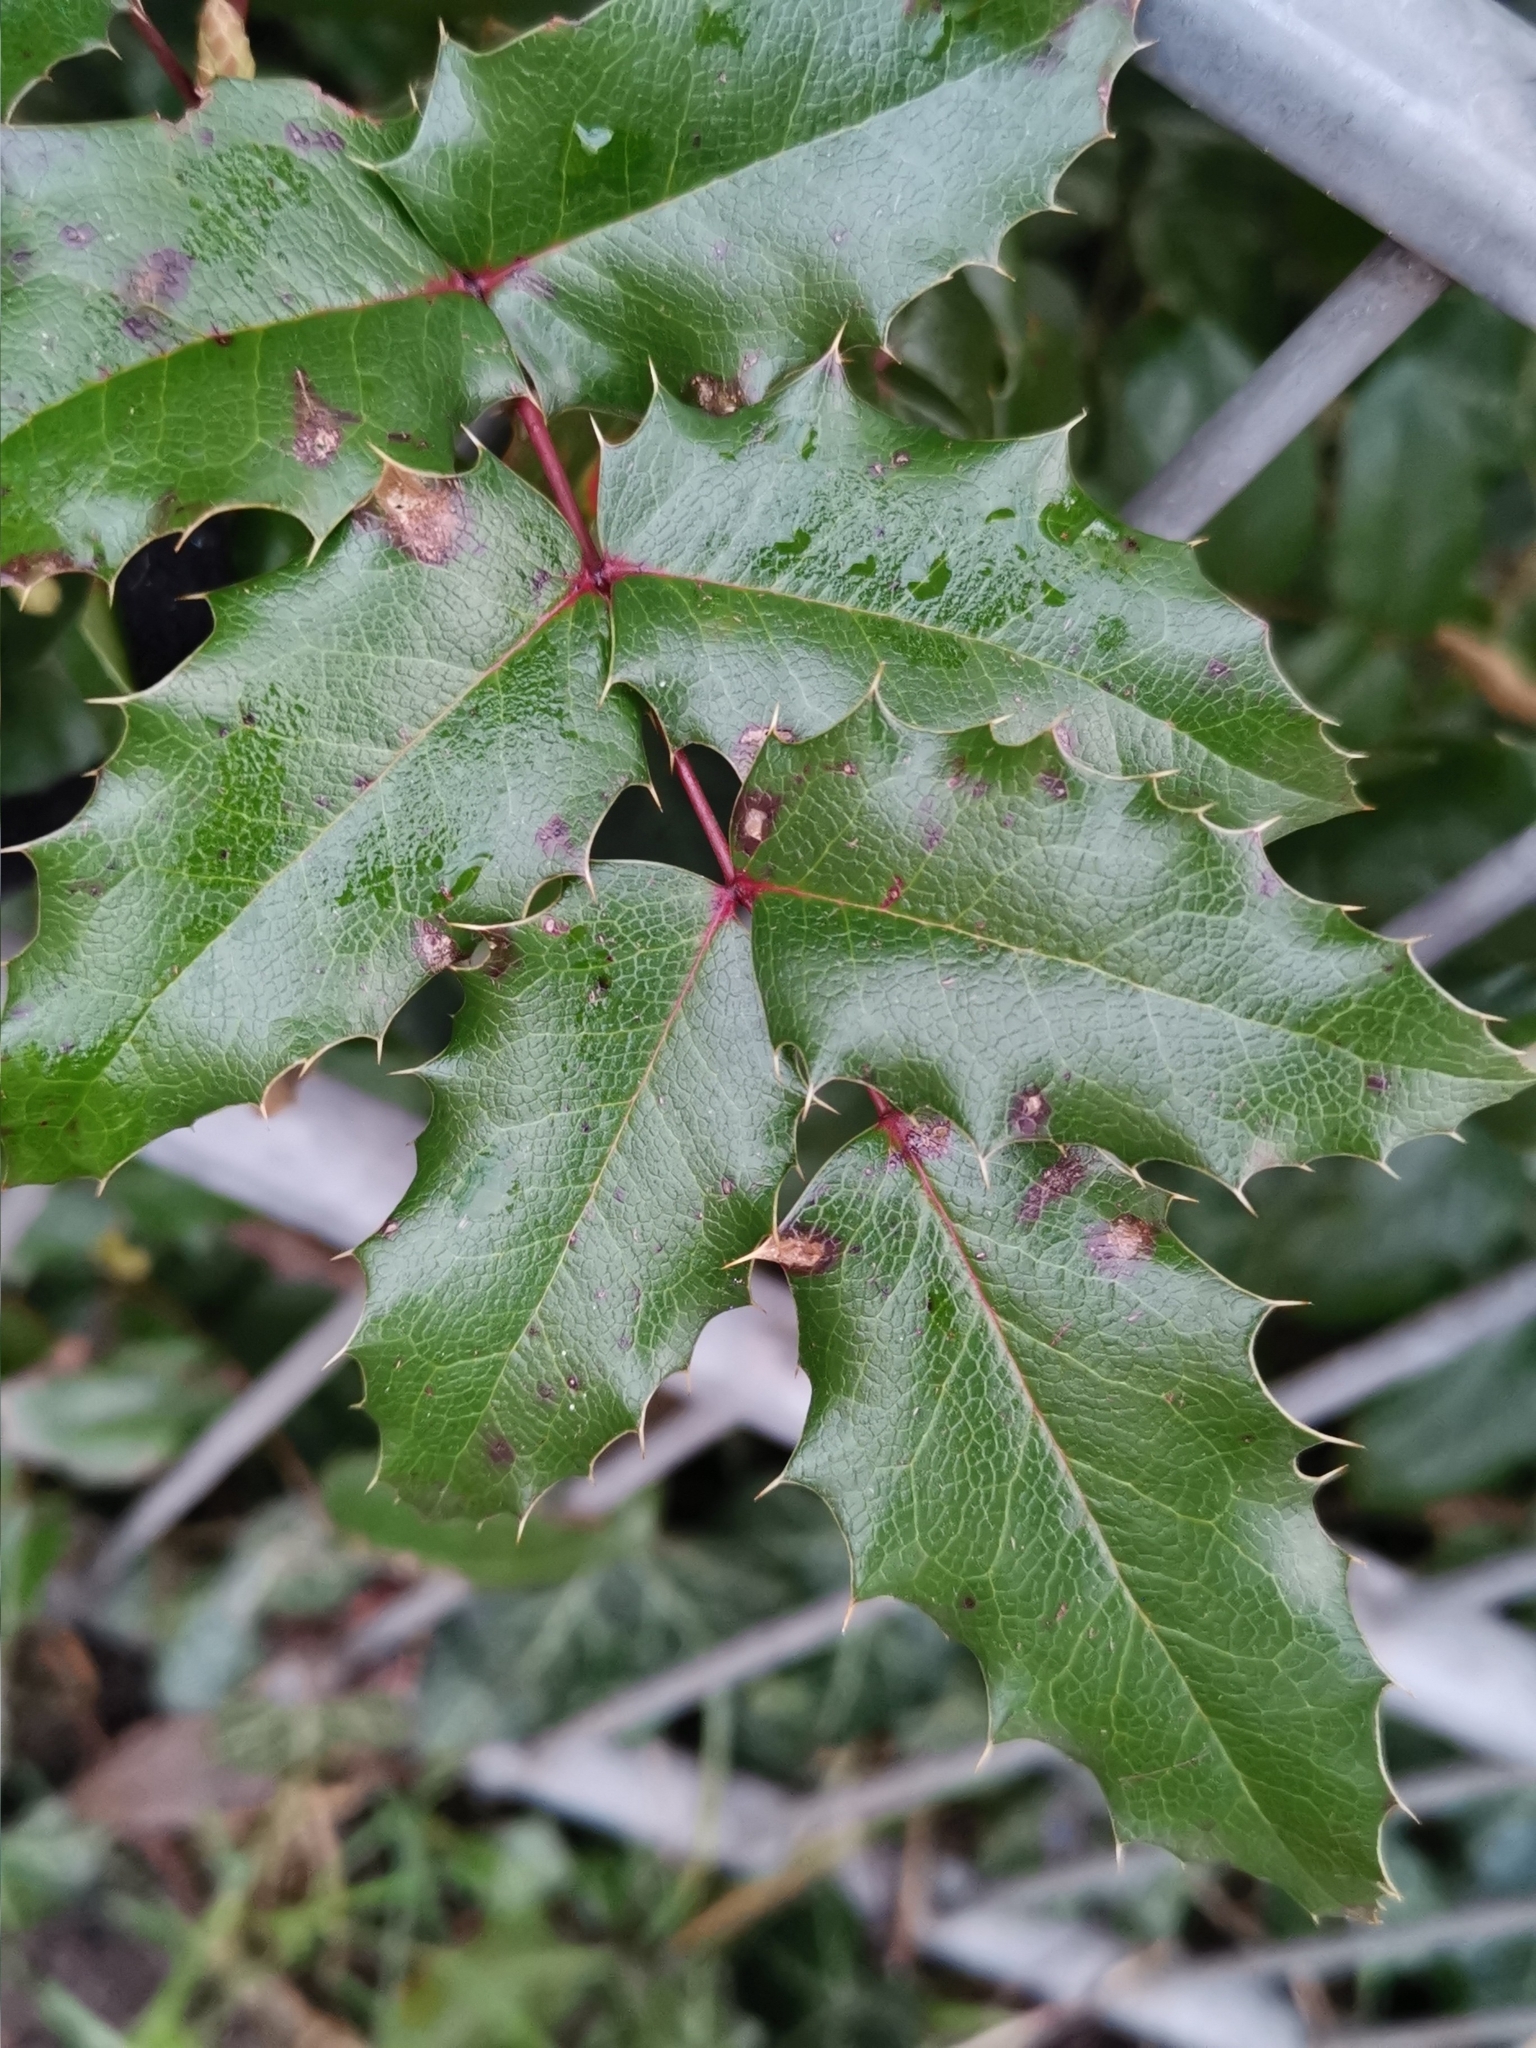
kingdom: Plantae
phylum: Tracheophyta
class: Magnoliopsida
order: Ranunculales
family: Berberidaceae
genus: Mahonia
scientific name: Mahonia aquifolium
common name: Oregon-grape
